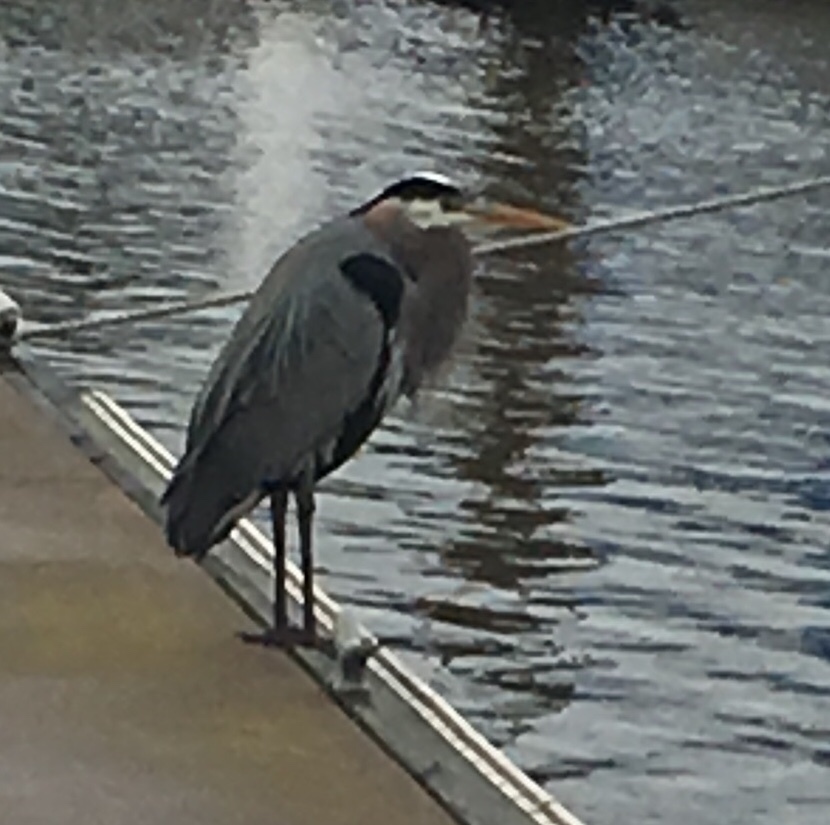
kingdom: Animalia
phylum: Chordata
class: Aves
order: Pelecaniformes
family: Ardeidae
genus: Ardea
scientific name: Ardea herodias
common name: Great blue heron
